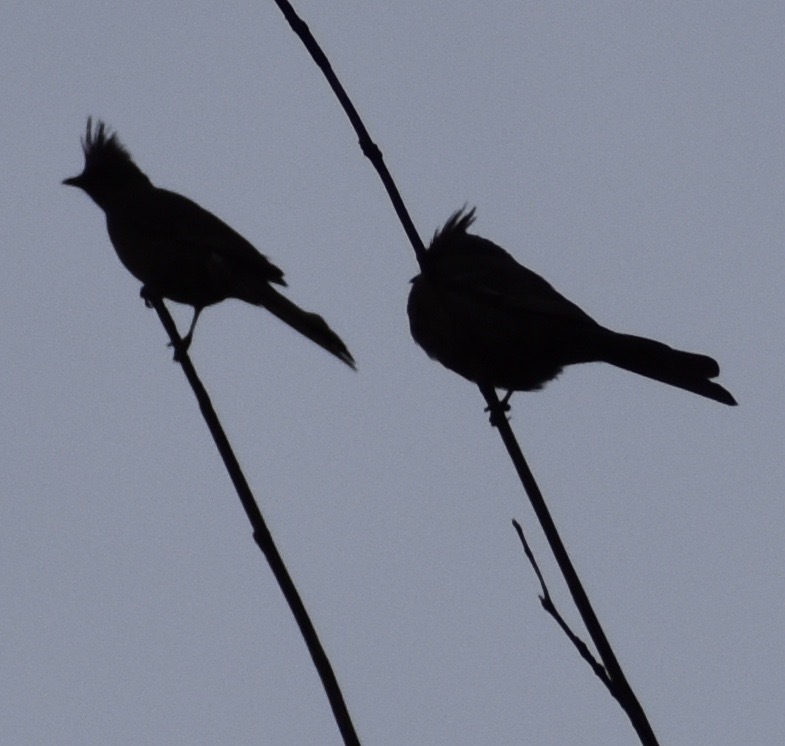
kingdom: Animalia
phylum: Chordata
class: Aves
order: Passeriformes
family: Ptilogonatidae
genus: Phainopepla
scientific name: Phainopepla nitens
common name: Phainopepla
